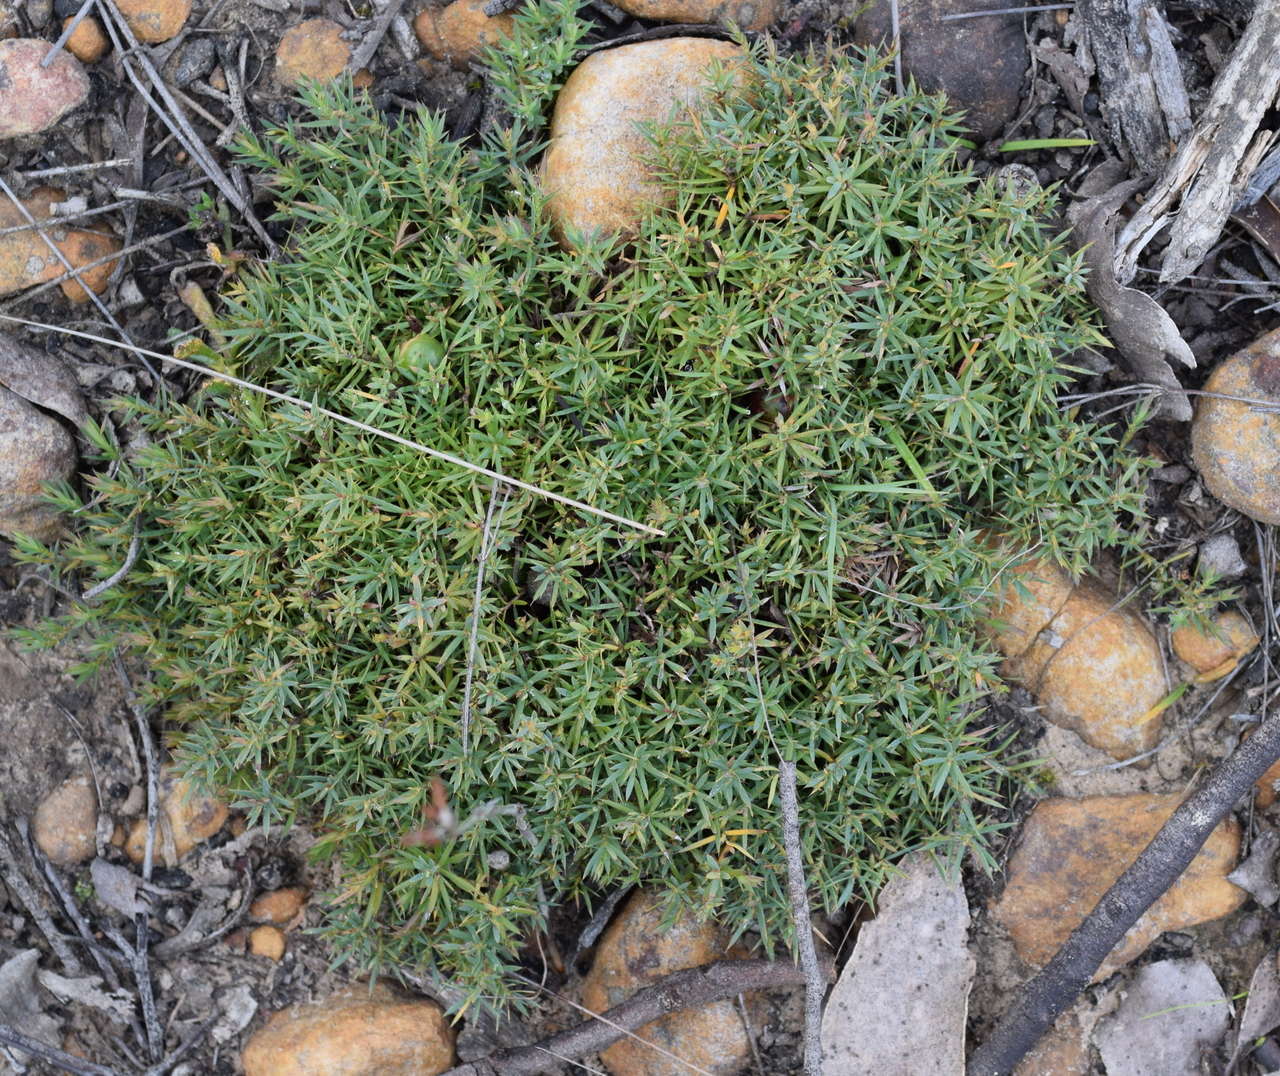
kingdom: Plantae
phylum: Tracheophyta
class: Magnoliopsida
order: Ericales
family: Ericaceae
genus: Styphelia
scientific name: Styphelia humifusa
